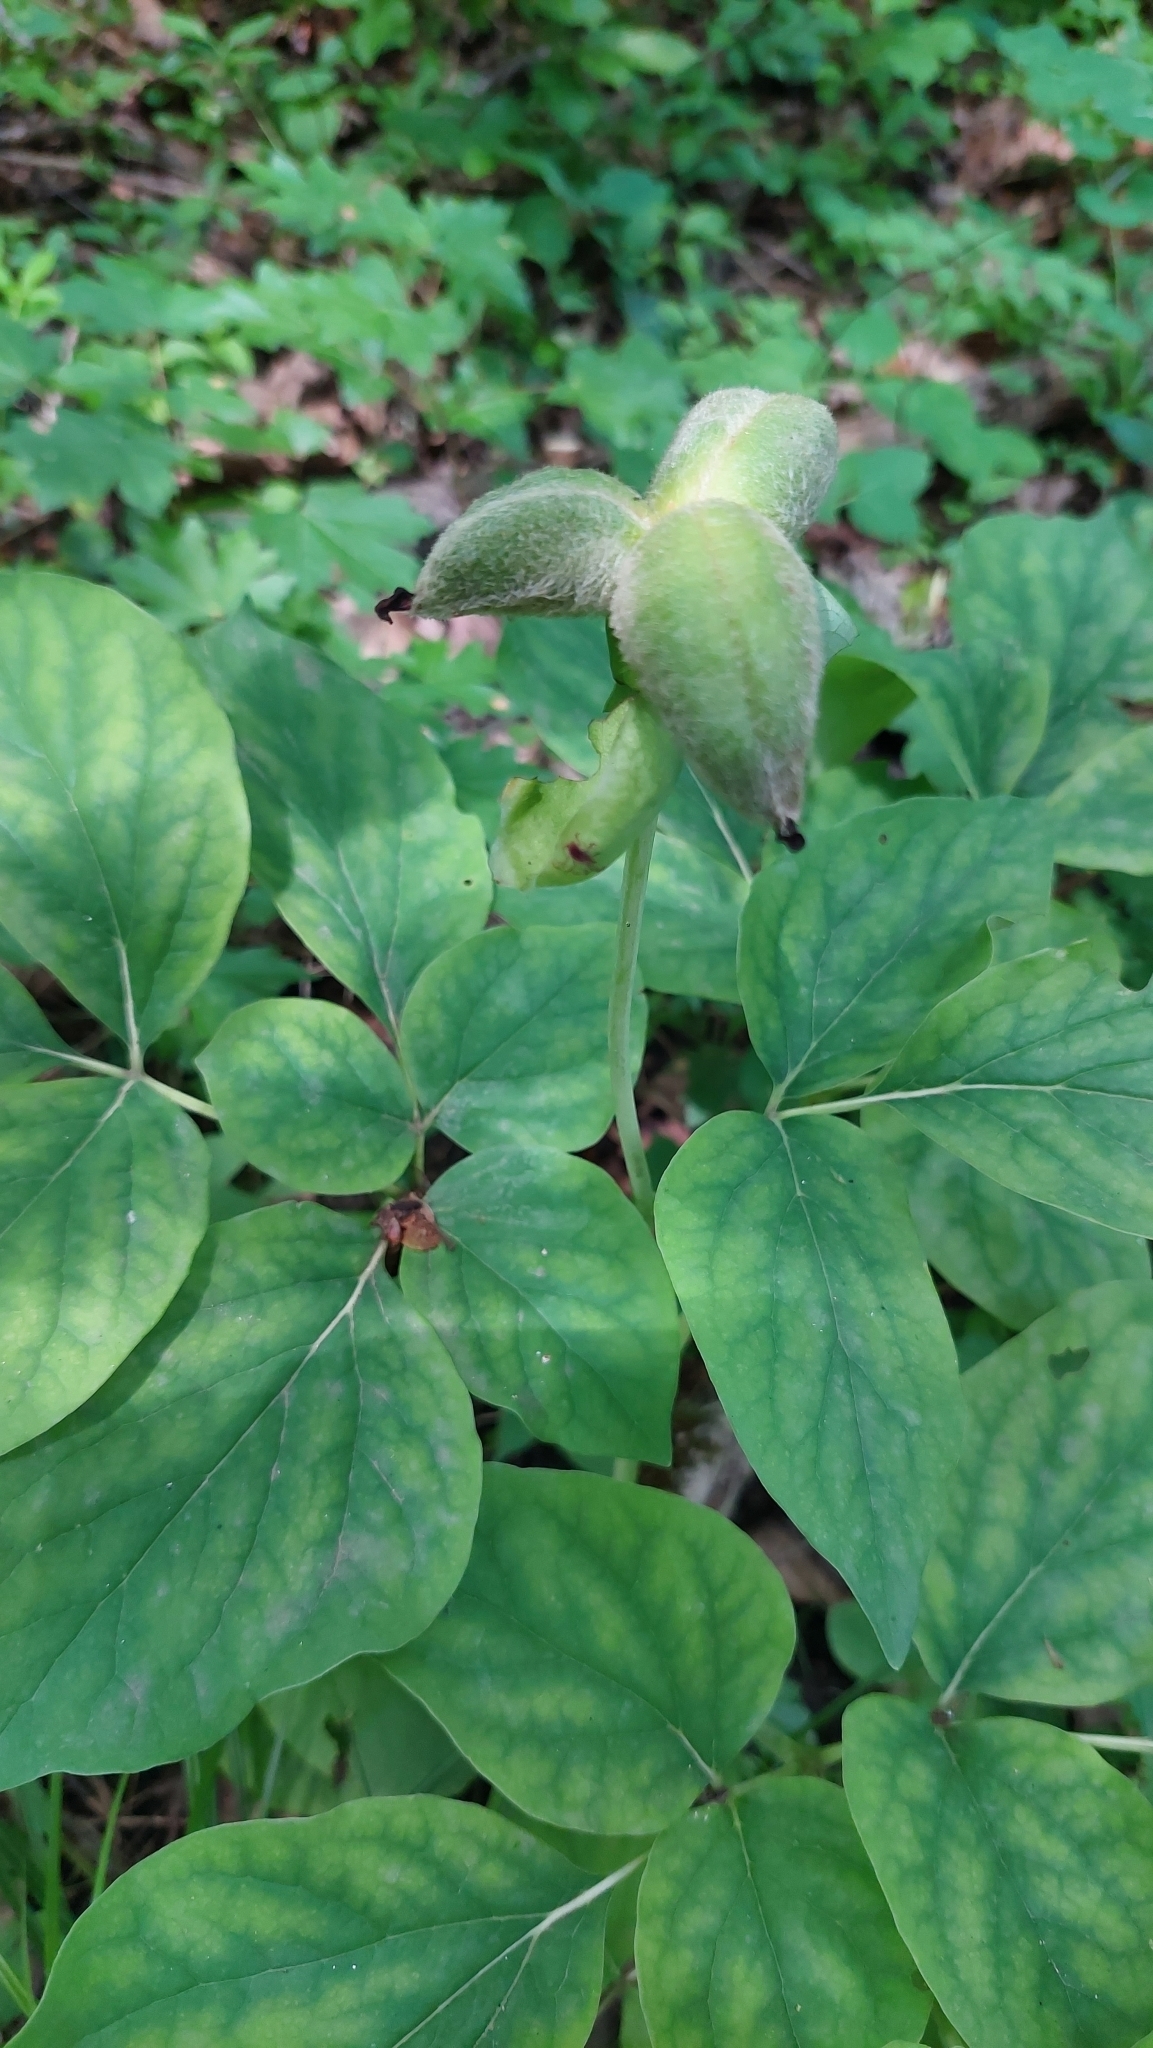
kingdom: Plantae
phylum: Tracheophyta
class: Magnoliopsida
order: Saxifragales
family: Paeoniaceae
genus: Paeonia
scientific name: Paeonia caucasica
